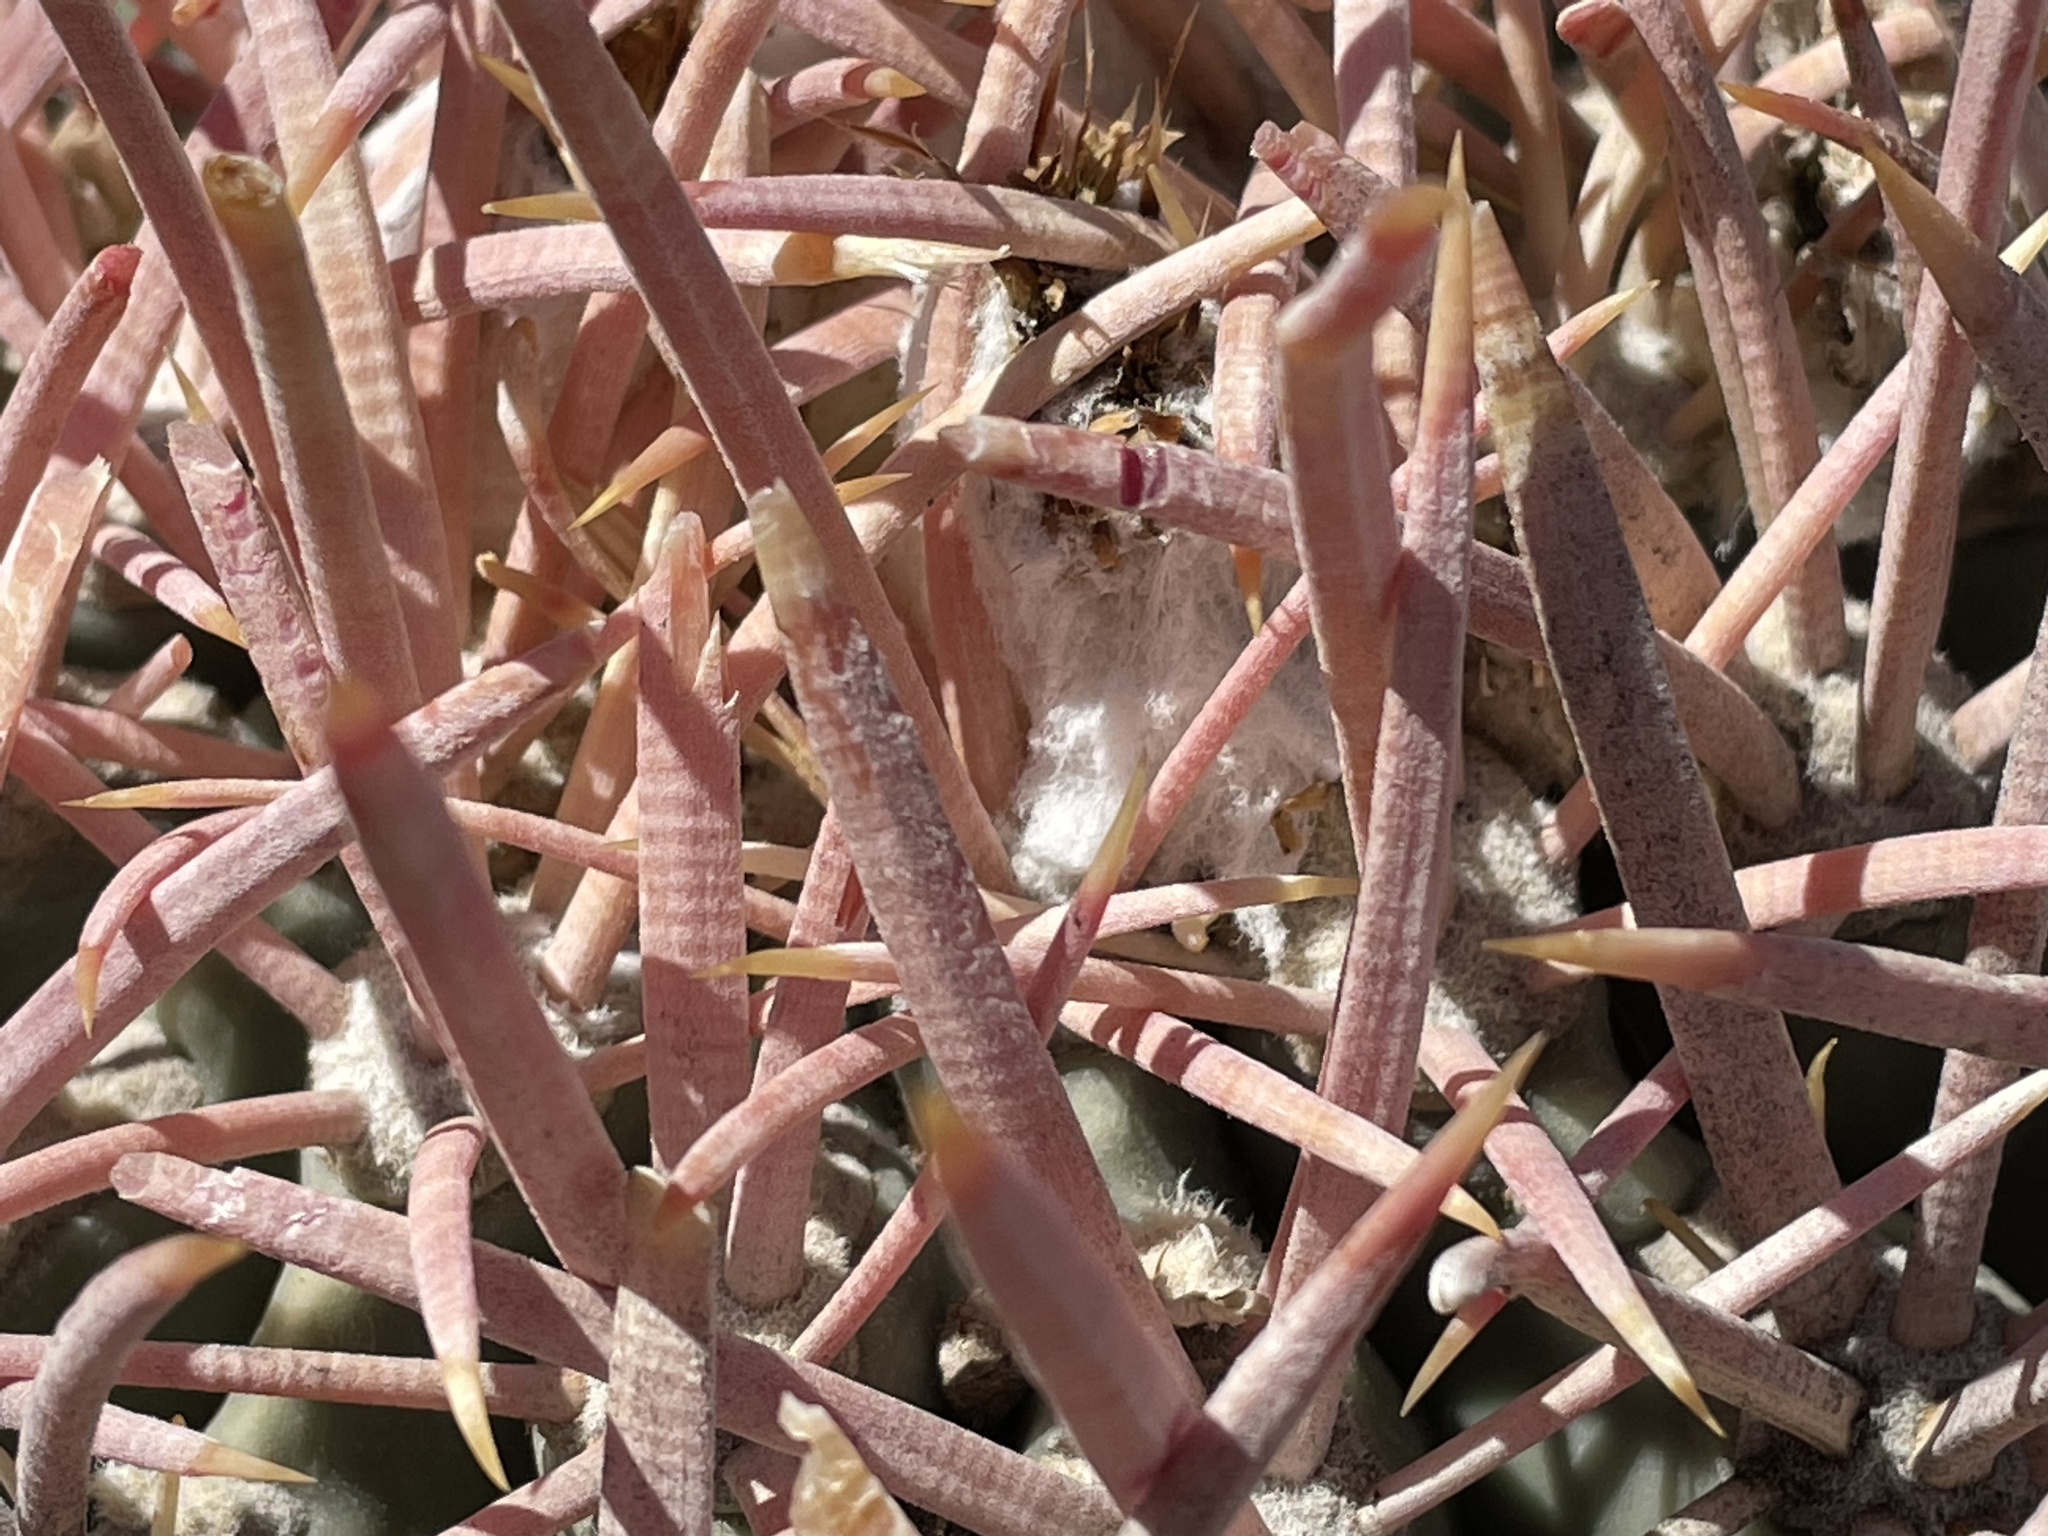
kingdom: Plantae
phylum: Tracheophyta
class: Magnoliopsida
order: Caryophyllales
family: Cactaceae
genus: Echinocactus
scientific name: Echinocactus polycephalus
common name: Cottontop cactus
